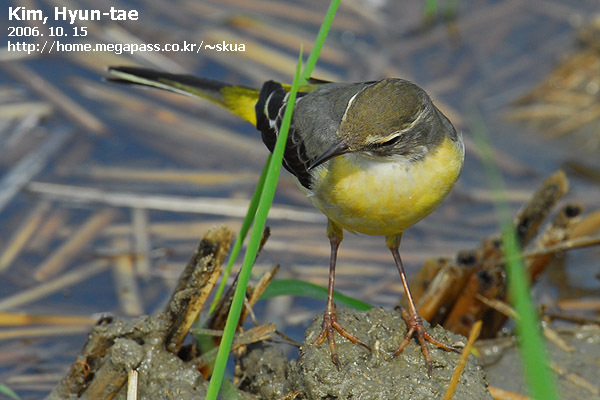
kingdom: Animalia
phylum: Chordata
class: Aves
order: Passeriformes
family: Motacillidae
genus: Motacilla
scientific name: Motacilla cinerea
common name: Grey wagtail
